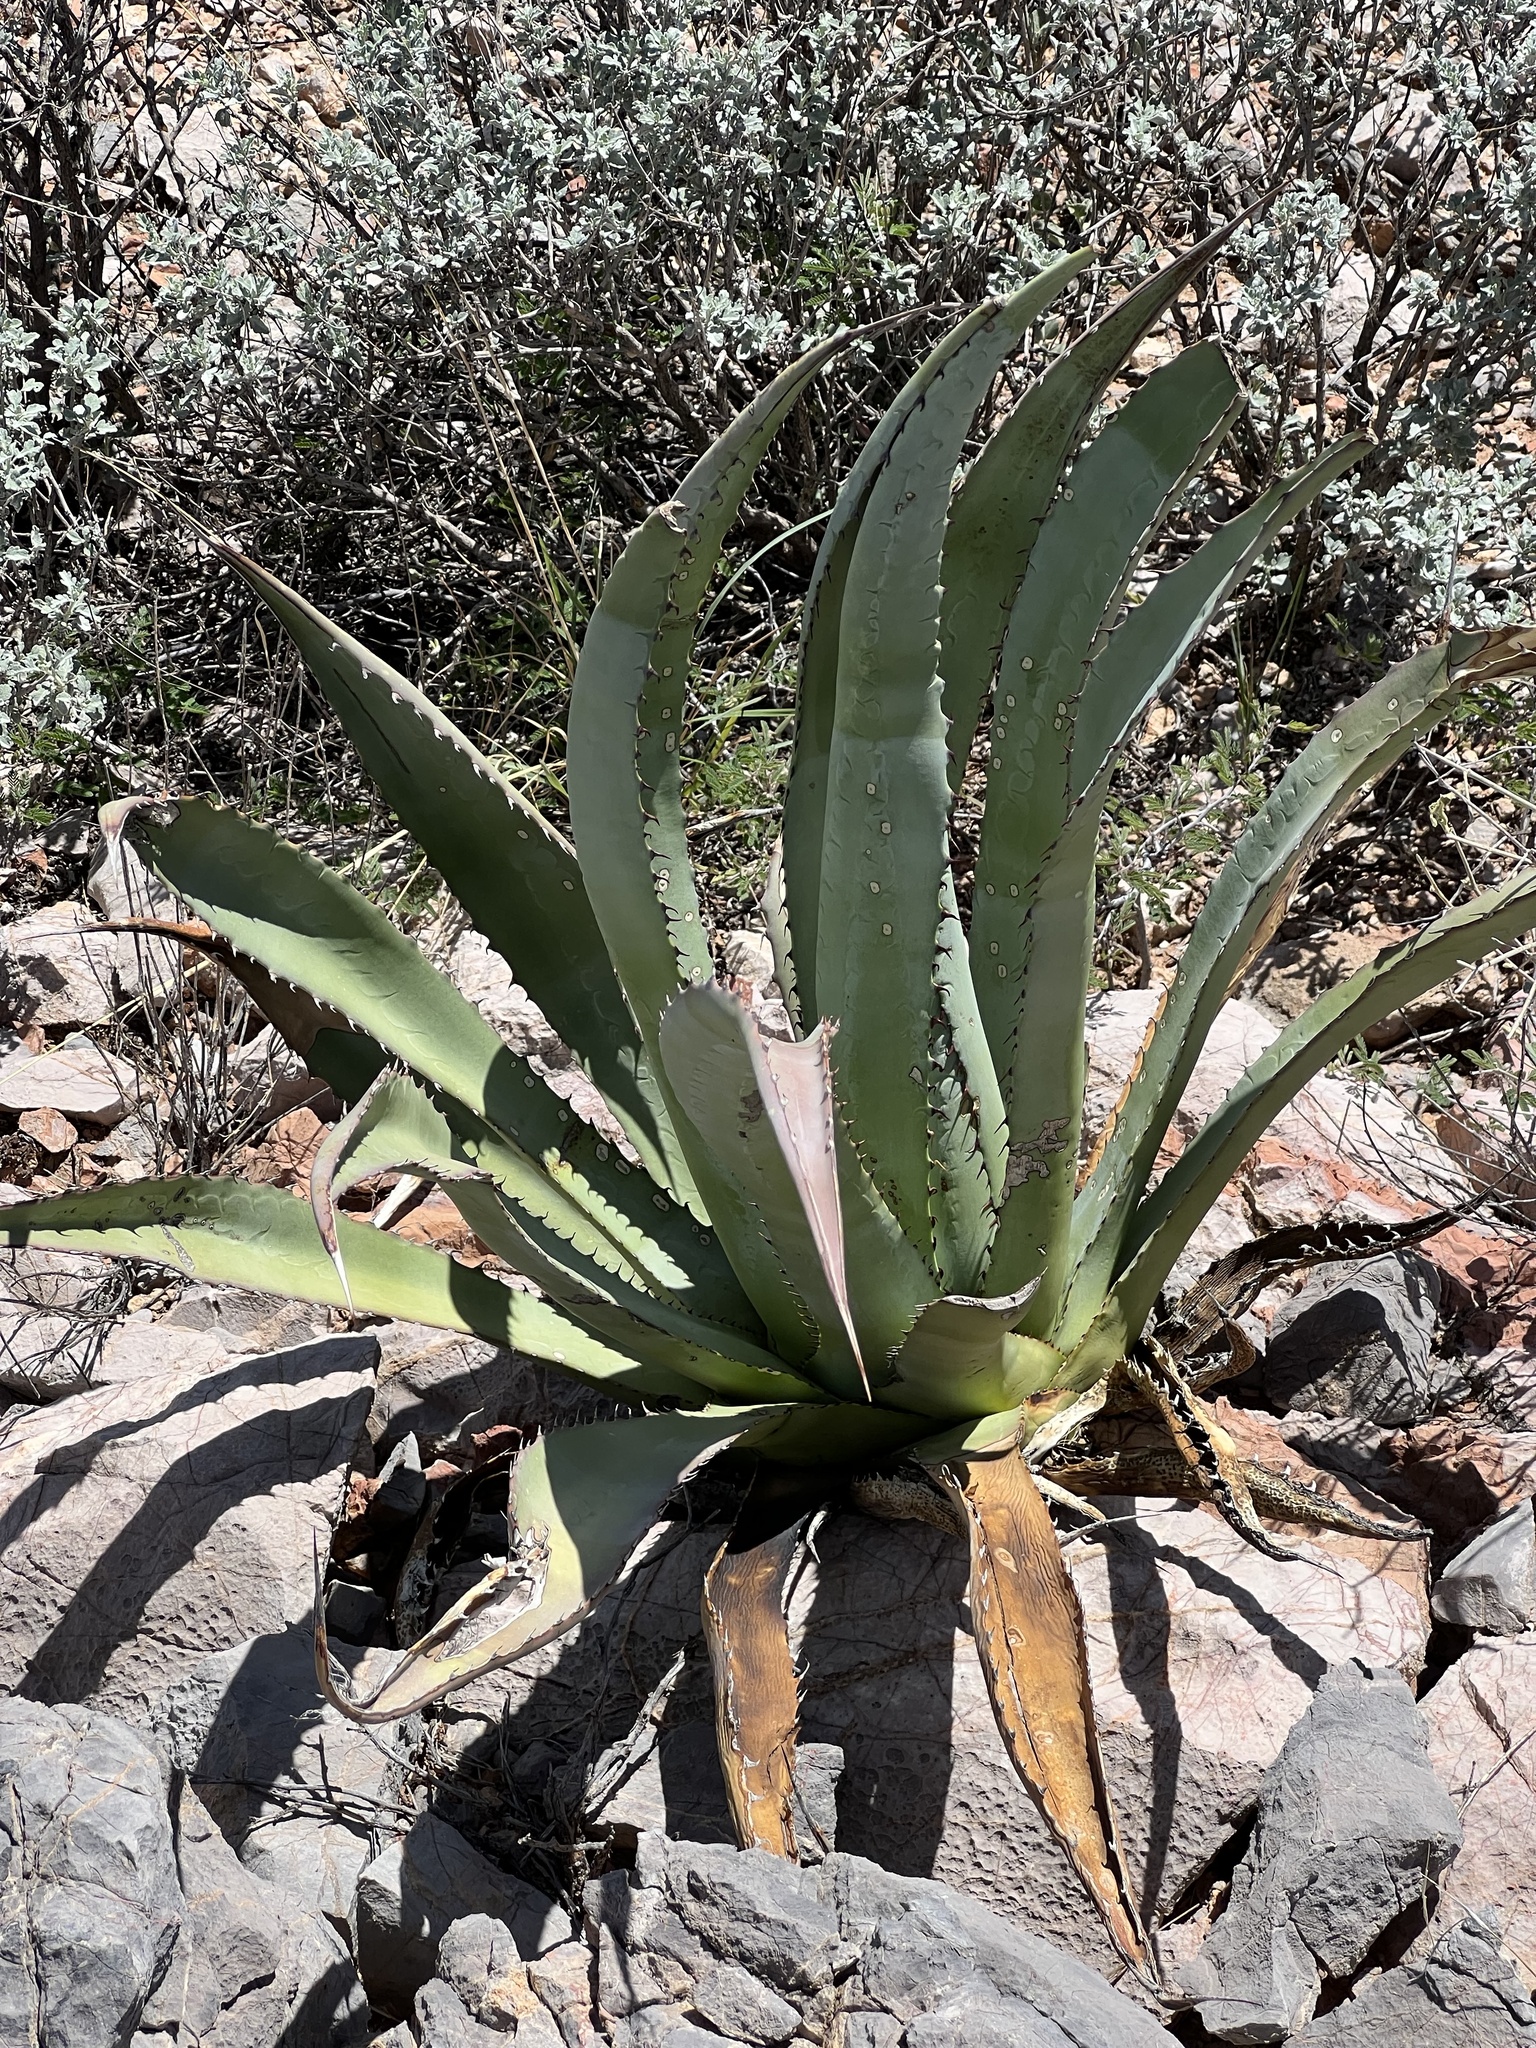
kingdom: Plantae
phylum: Tracheophyta
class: Liliopsida
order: Asparagales
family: Asparagaceae
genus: Agave
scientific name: Agave palmeri
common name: Palmer agave
